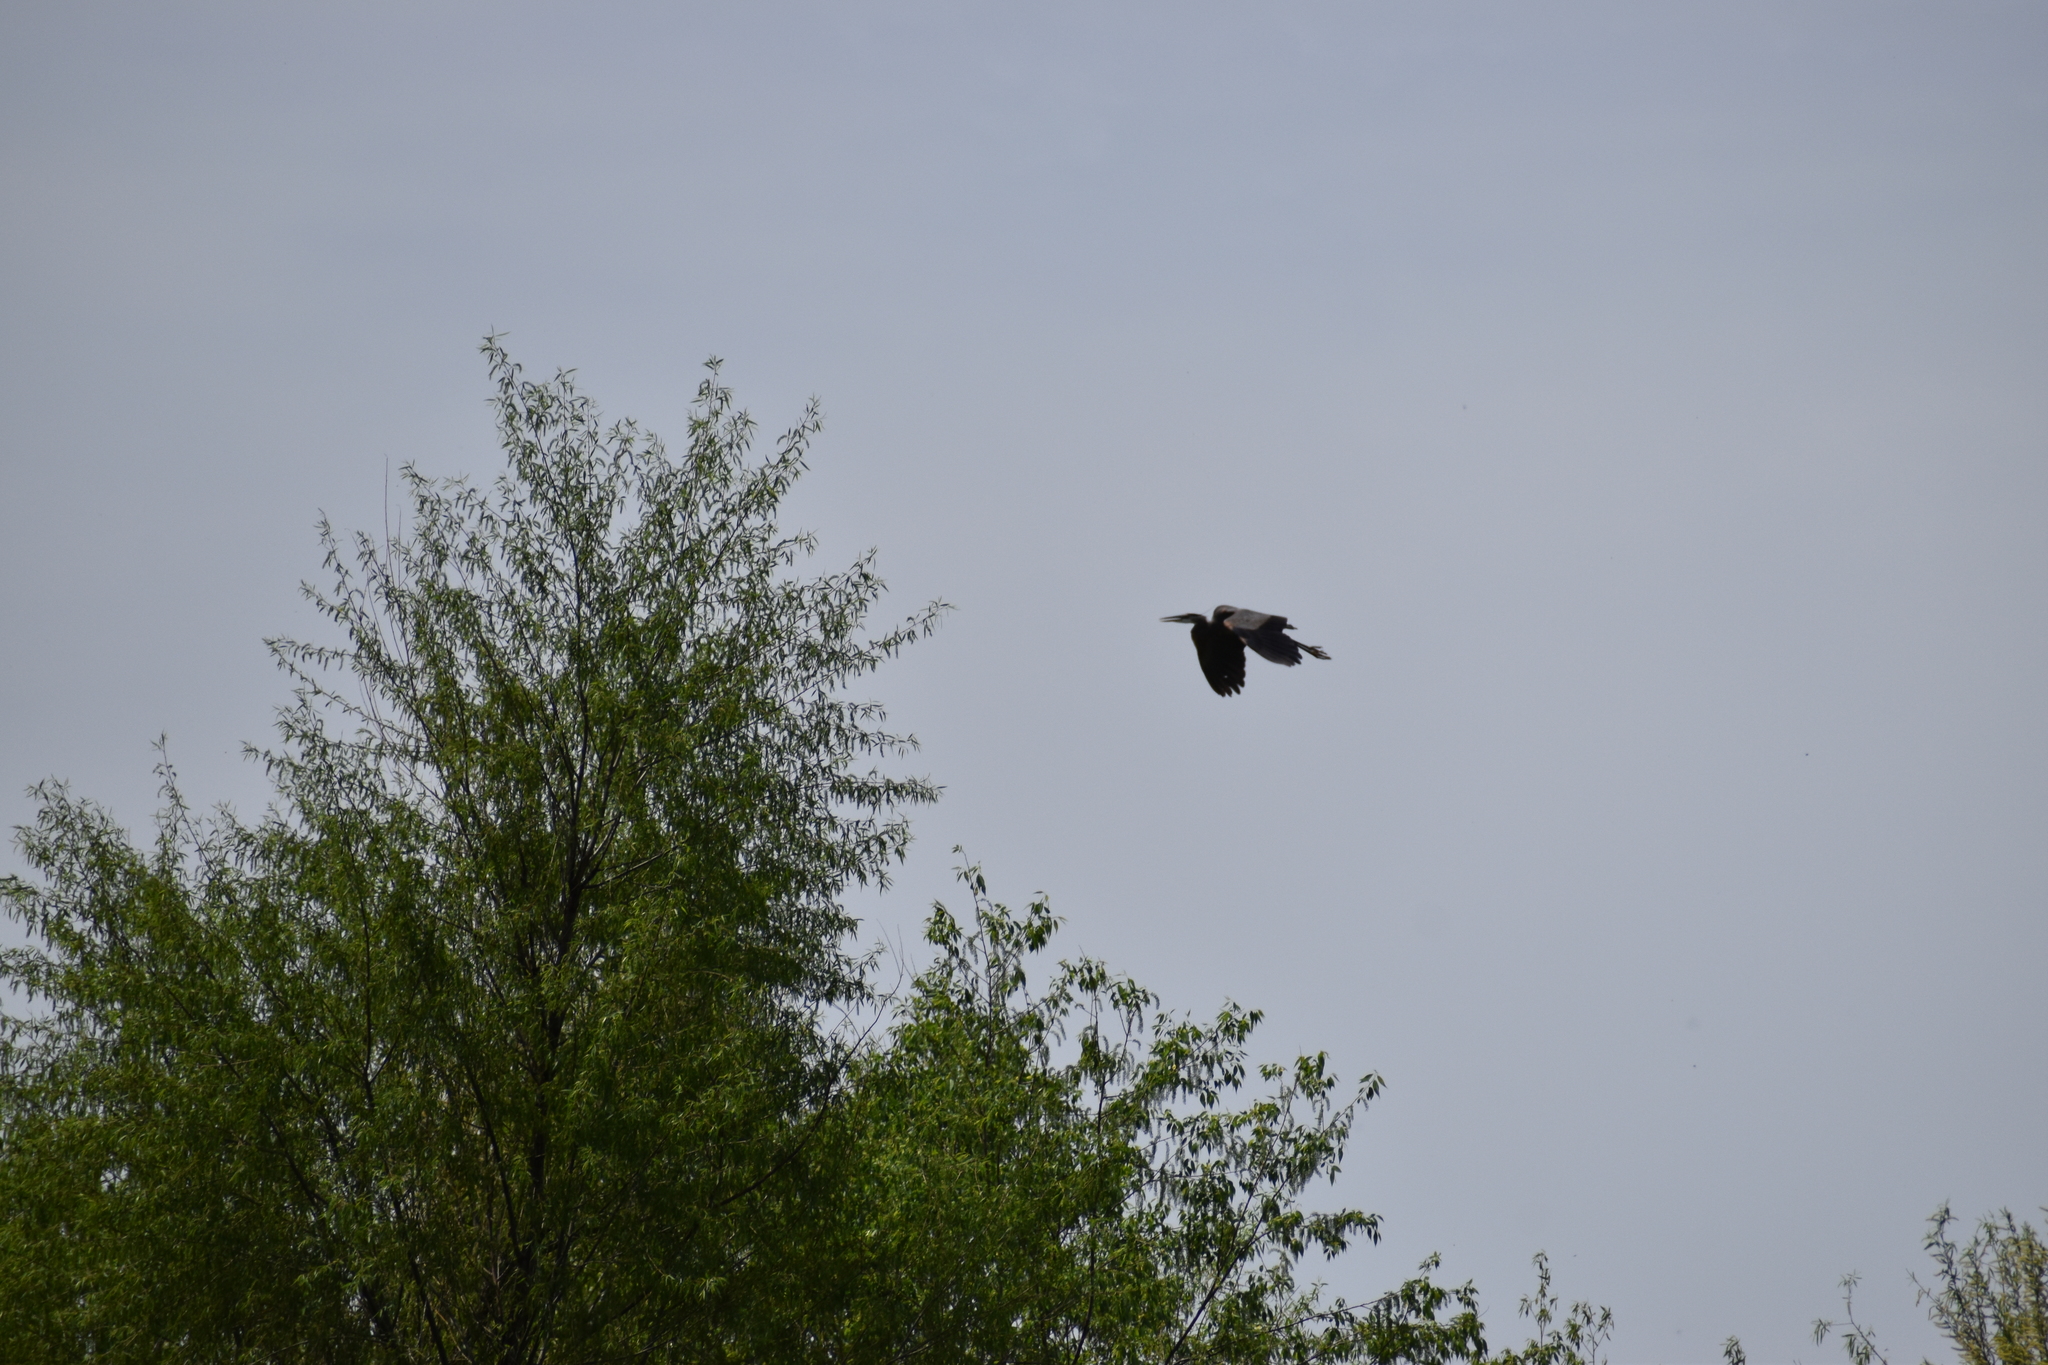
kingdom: Animalia
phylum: Chordata
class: Aves
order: Pelecaniformes
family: Ardeidae
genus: Ardea
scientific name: Ardea herodias
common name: Great blue heron
